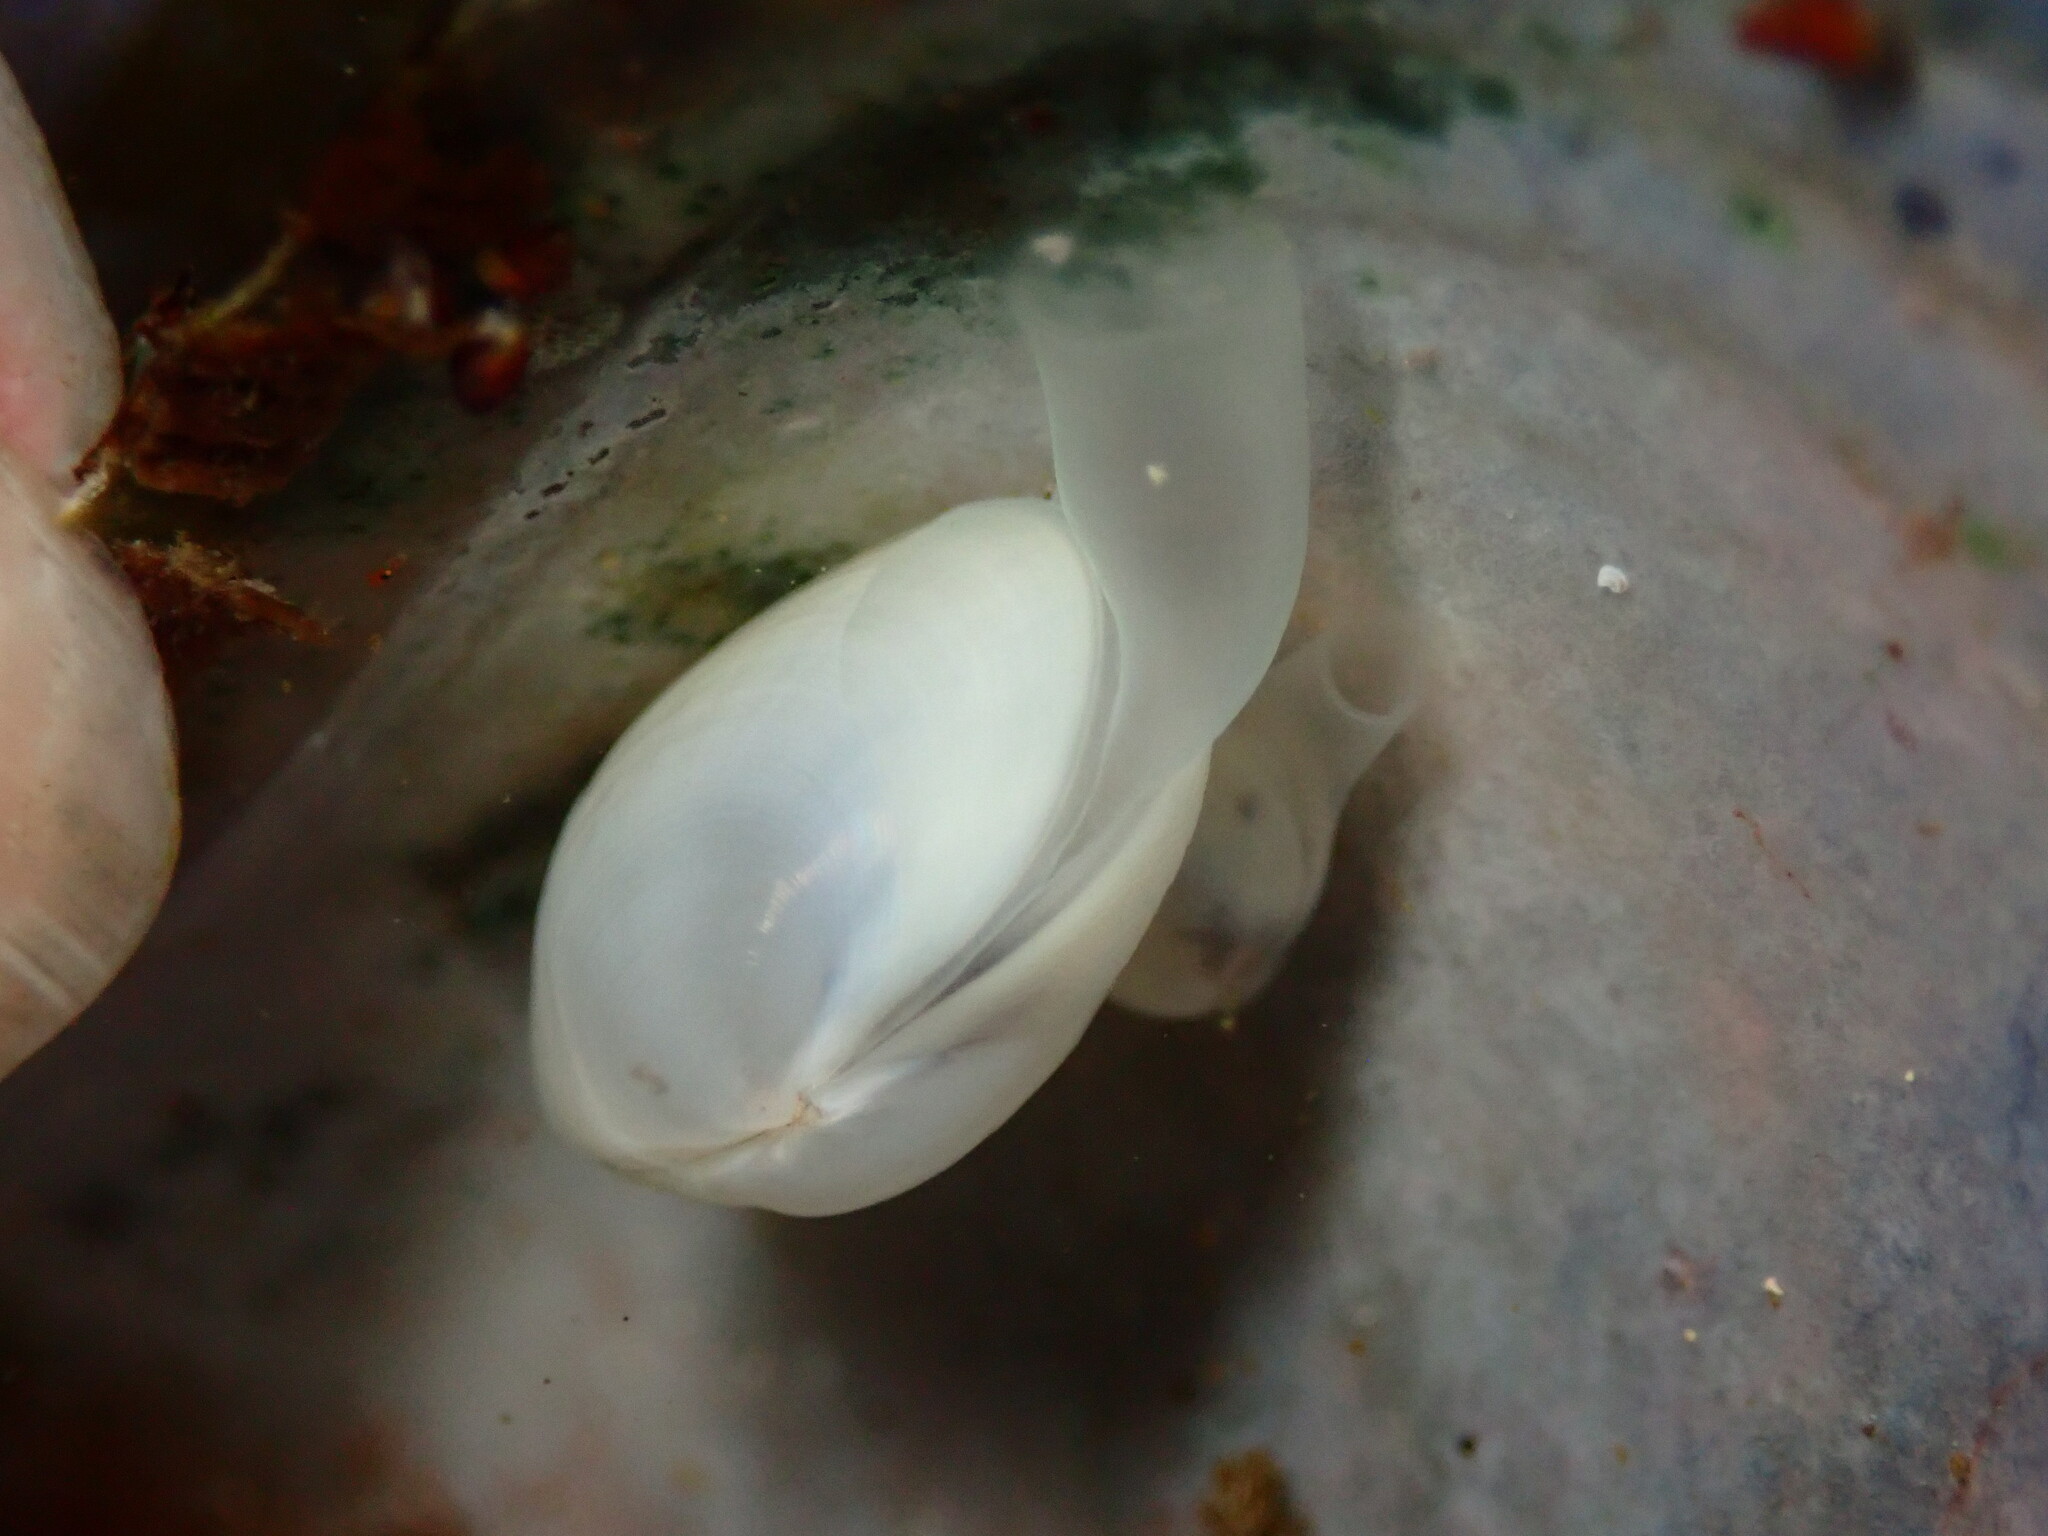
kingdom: Animalia
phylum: Mollusca
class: Bivalvia
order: Galeommatida
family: Lasaeidae
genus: Kellia
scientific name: Kellia laperousii
